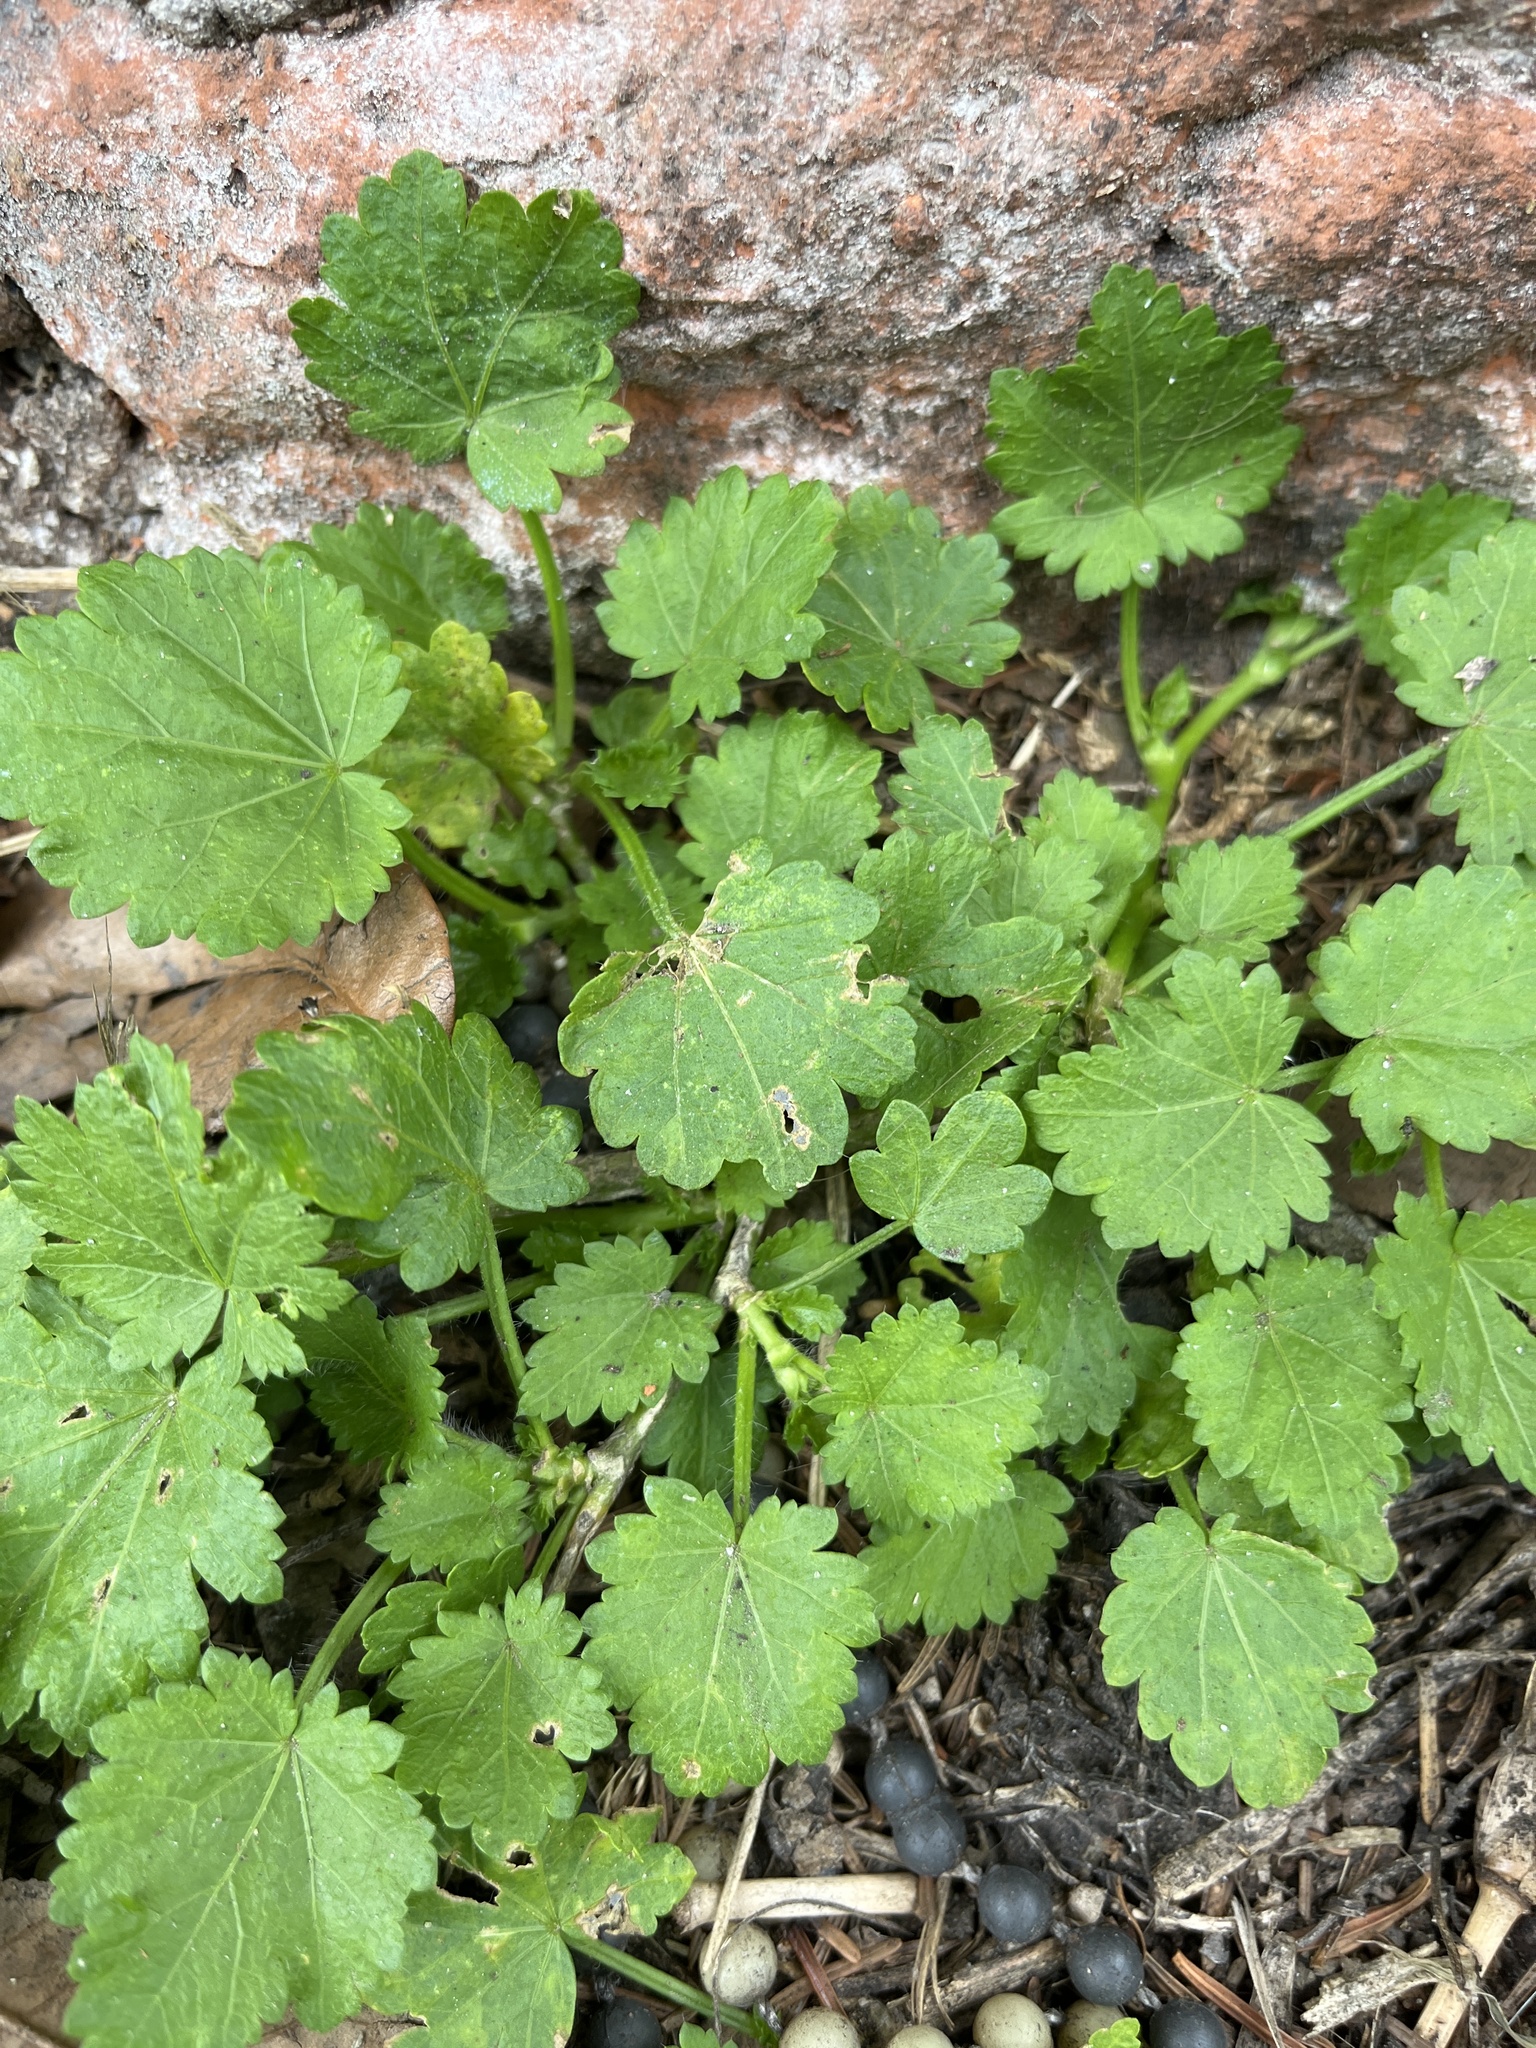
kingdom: Plantae
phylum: Tracheophyta
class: Magnoliopsida
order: Malvales
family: Malvaceae
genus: Modiola
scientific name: Modiola caroliniana
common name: Carolina bristlemallow
